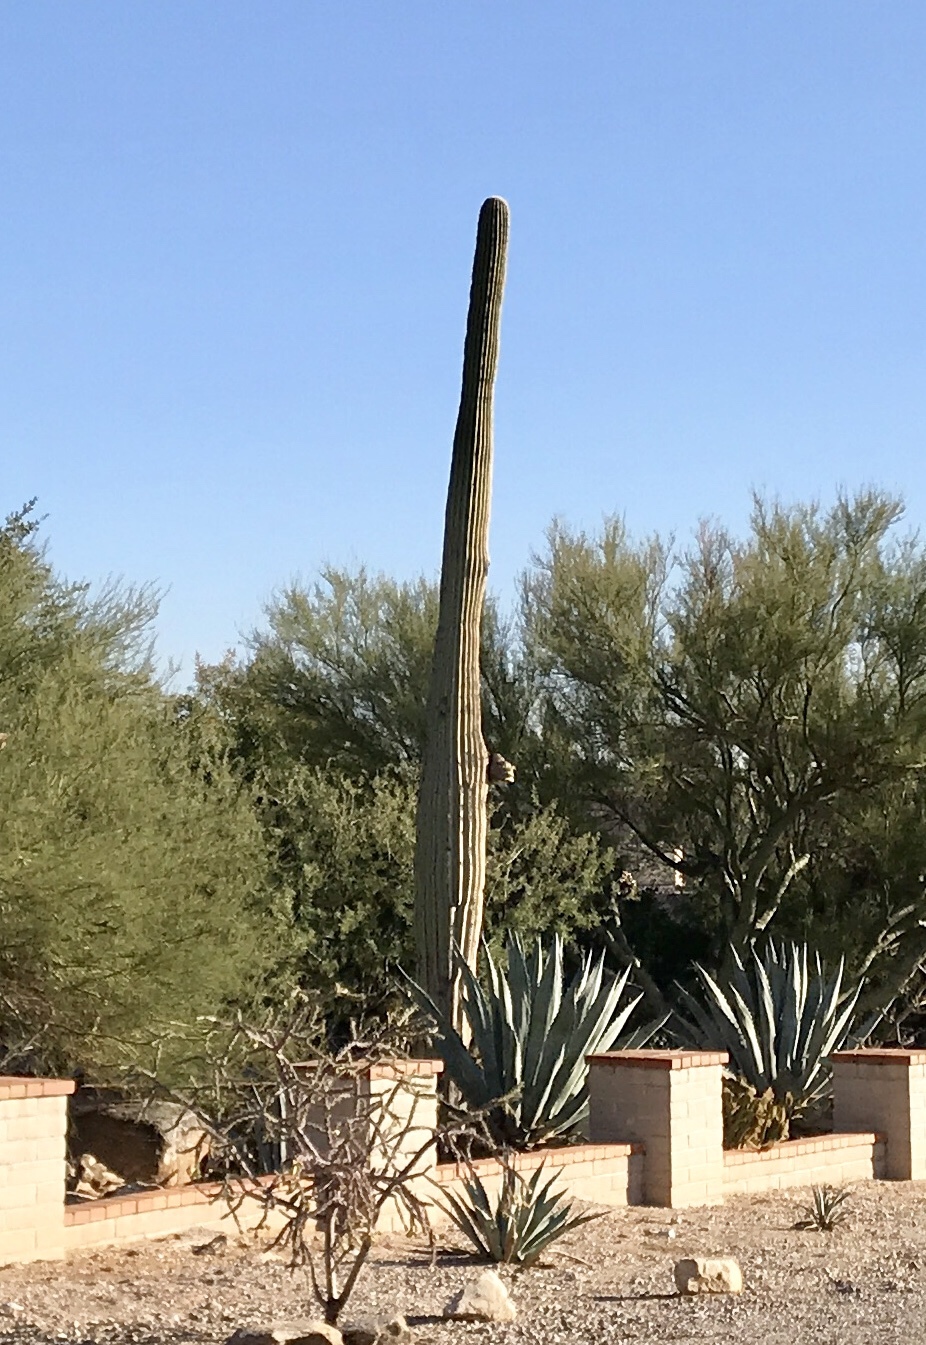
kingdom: Plantae
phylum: Tracheophyta
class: Magnoliopsida
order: Caryophyllales
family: Cactaceae
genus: Carnegiea
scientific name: Carnegiea gigantea
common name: Saguaro
